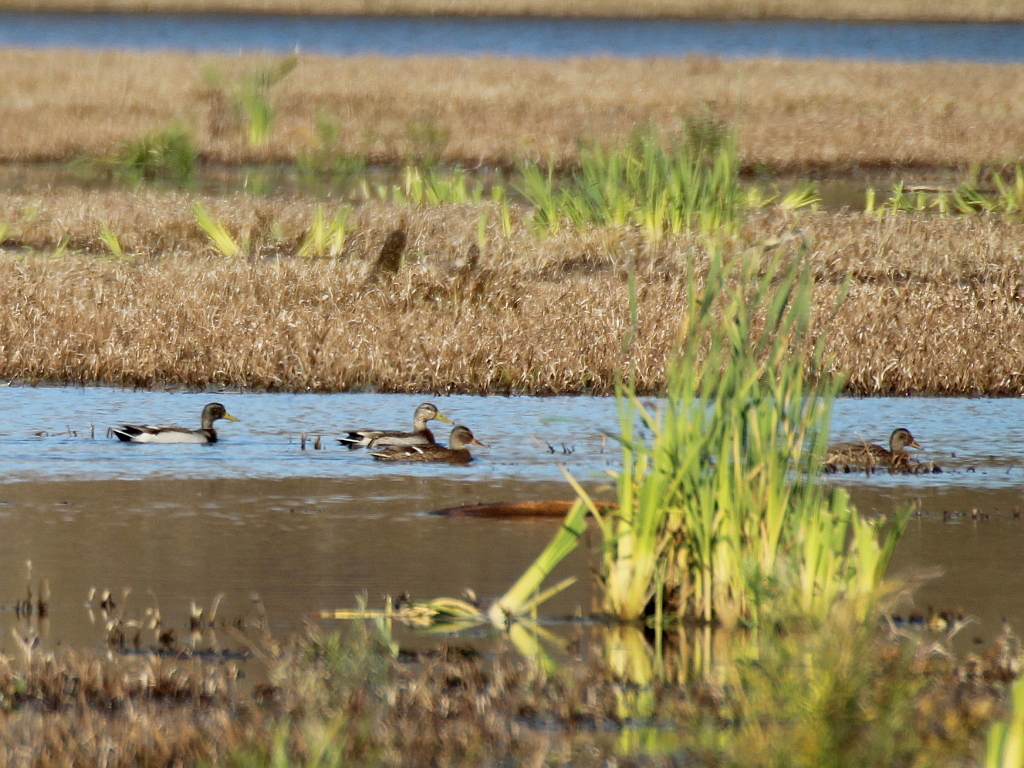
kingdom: Animalia
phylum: Chordata
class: Aves
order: Anseriformes
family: Anatidae
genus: Anas
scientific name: Anas platyrhynchos
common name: Mallard
